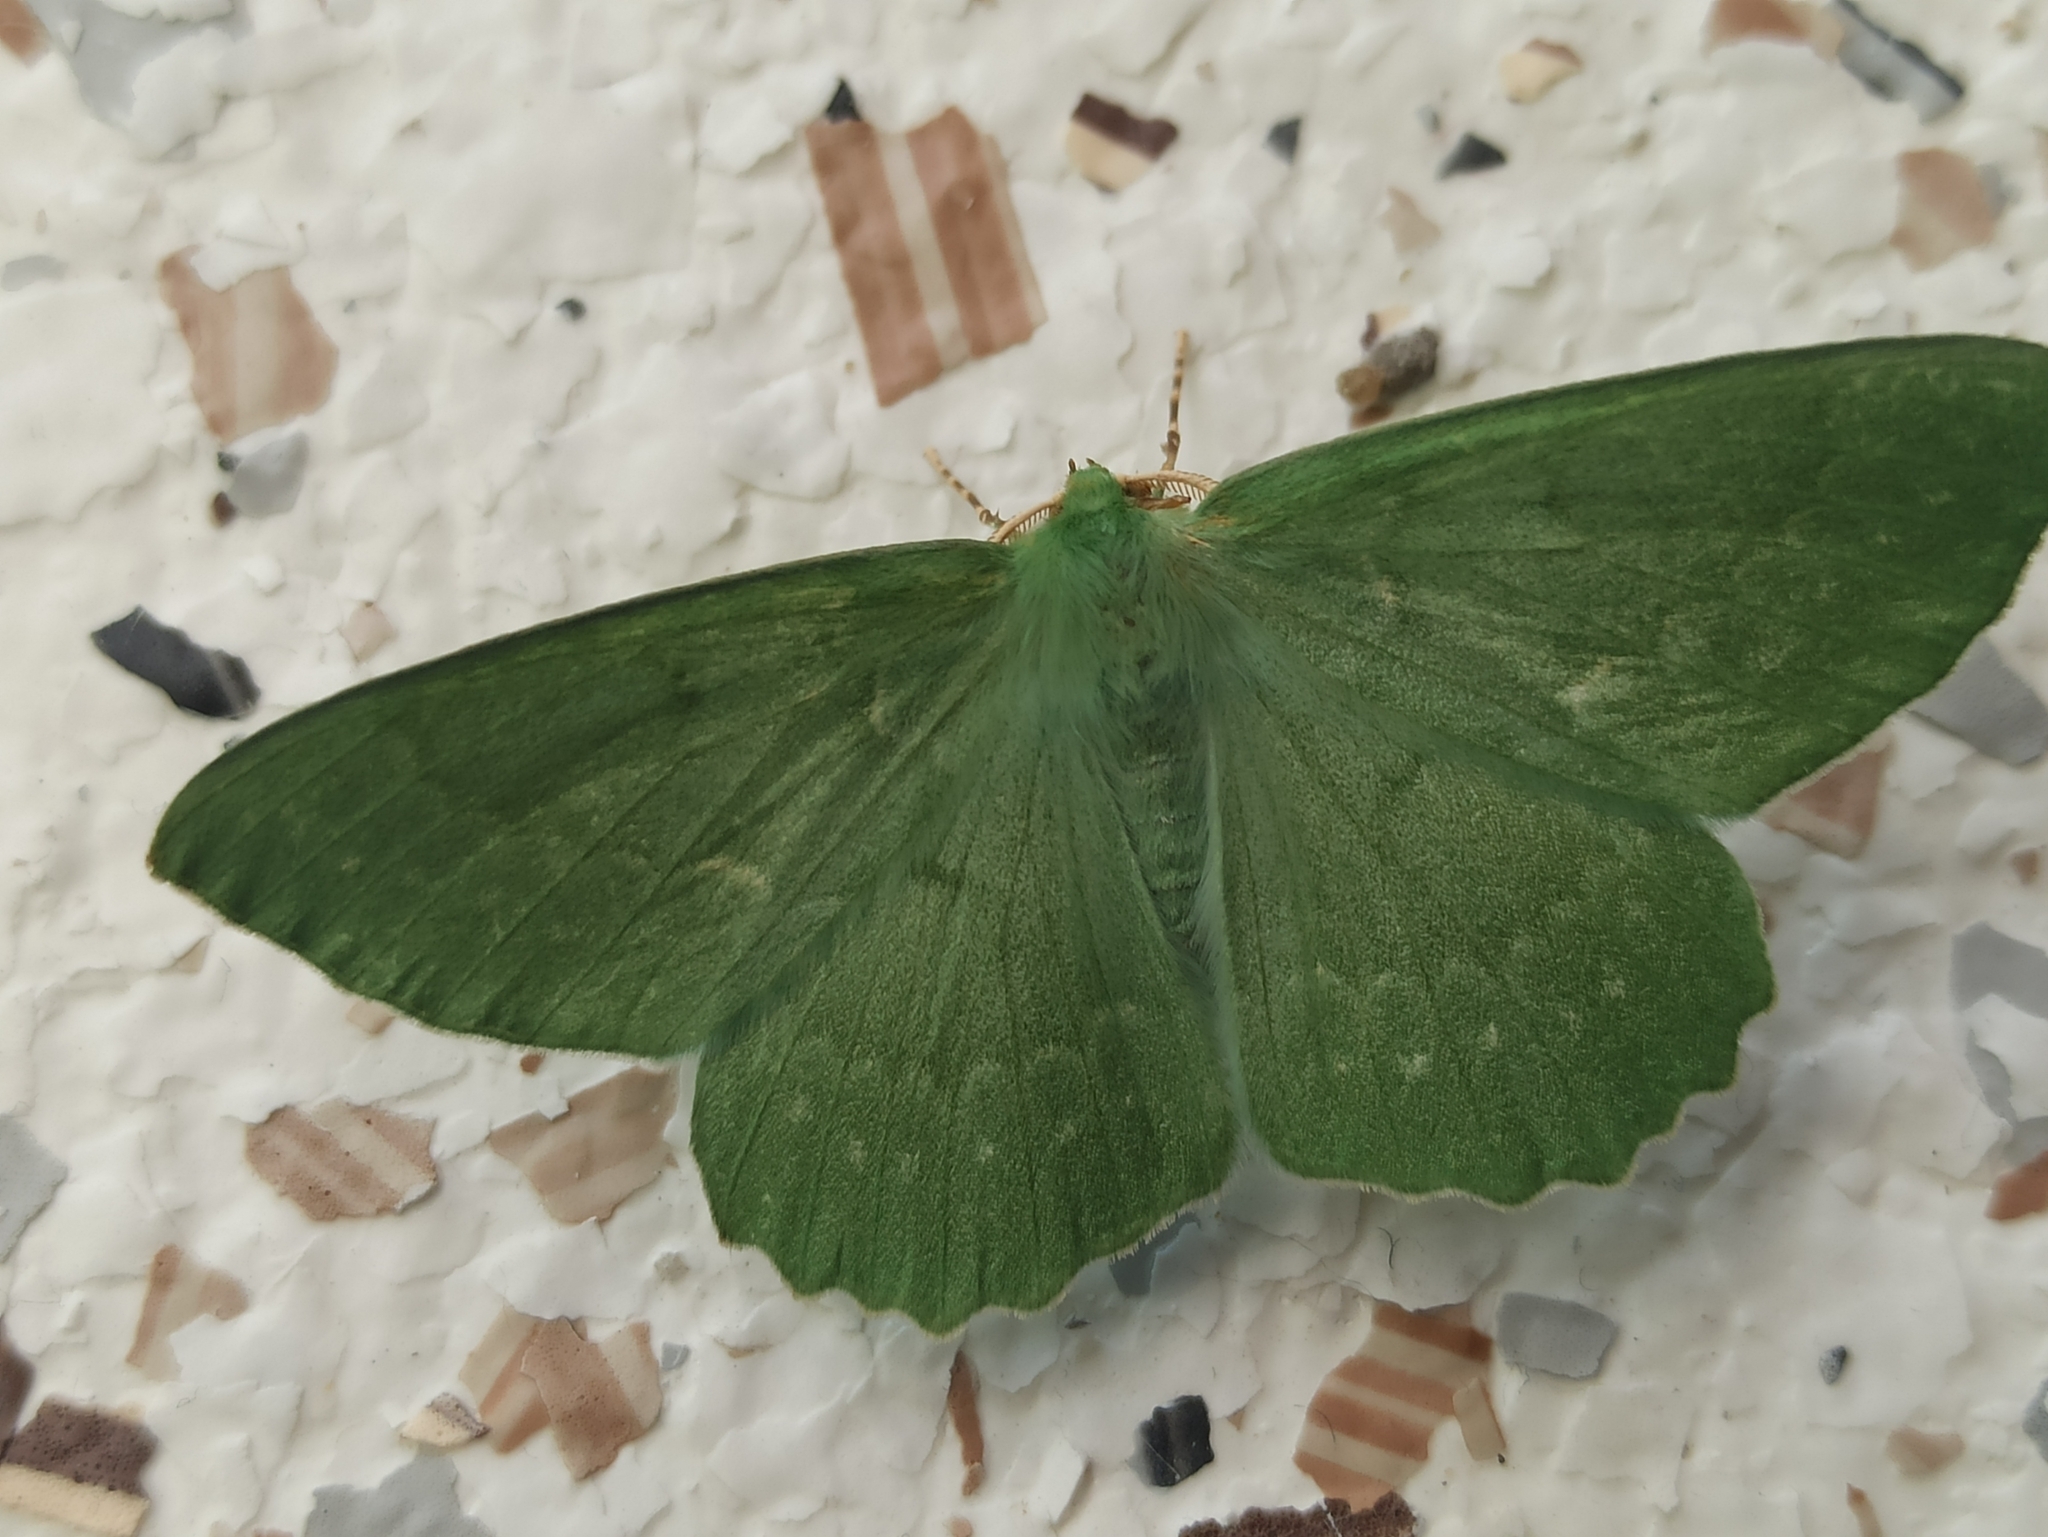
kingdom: Animalia
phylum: Arthropoda
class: Insecta
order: Lepidoptera
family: Geometridae
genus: Geometra
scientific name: Geometra papilionaria
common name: Large emerald
